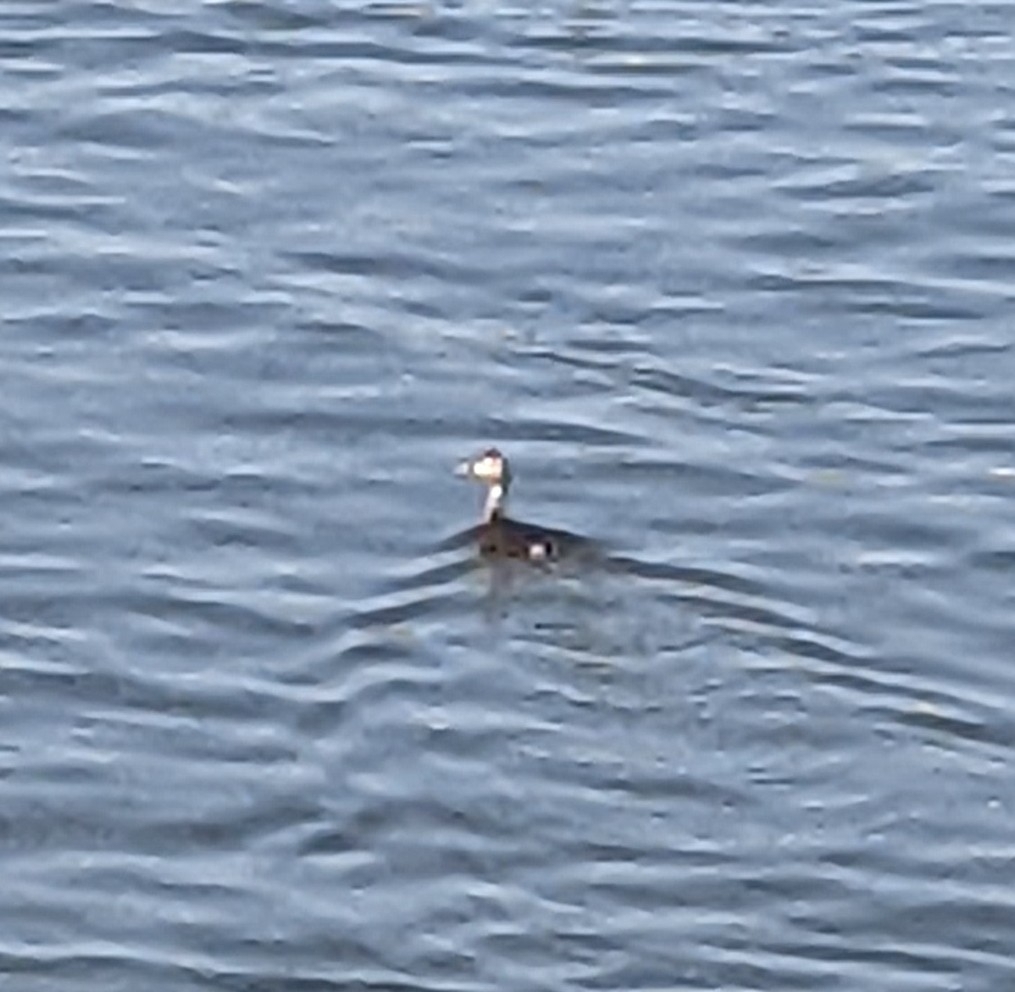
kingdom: Animalia
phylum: Chordata
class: Aves
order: Podicipediformes
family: Podicipedidae
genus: Podiceps
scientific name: Podiceps cristatus
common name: Great crested grebe
